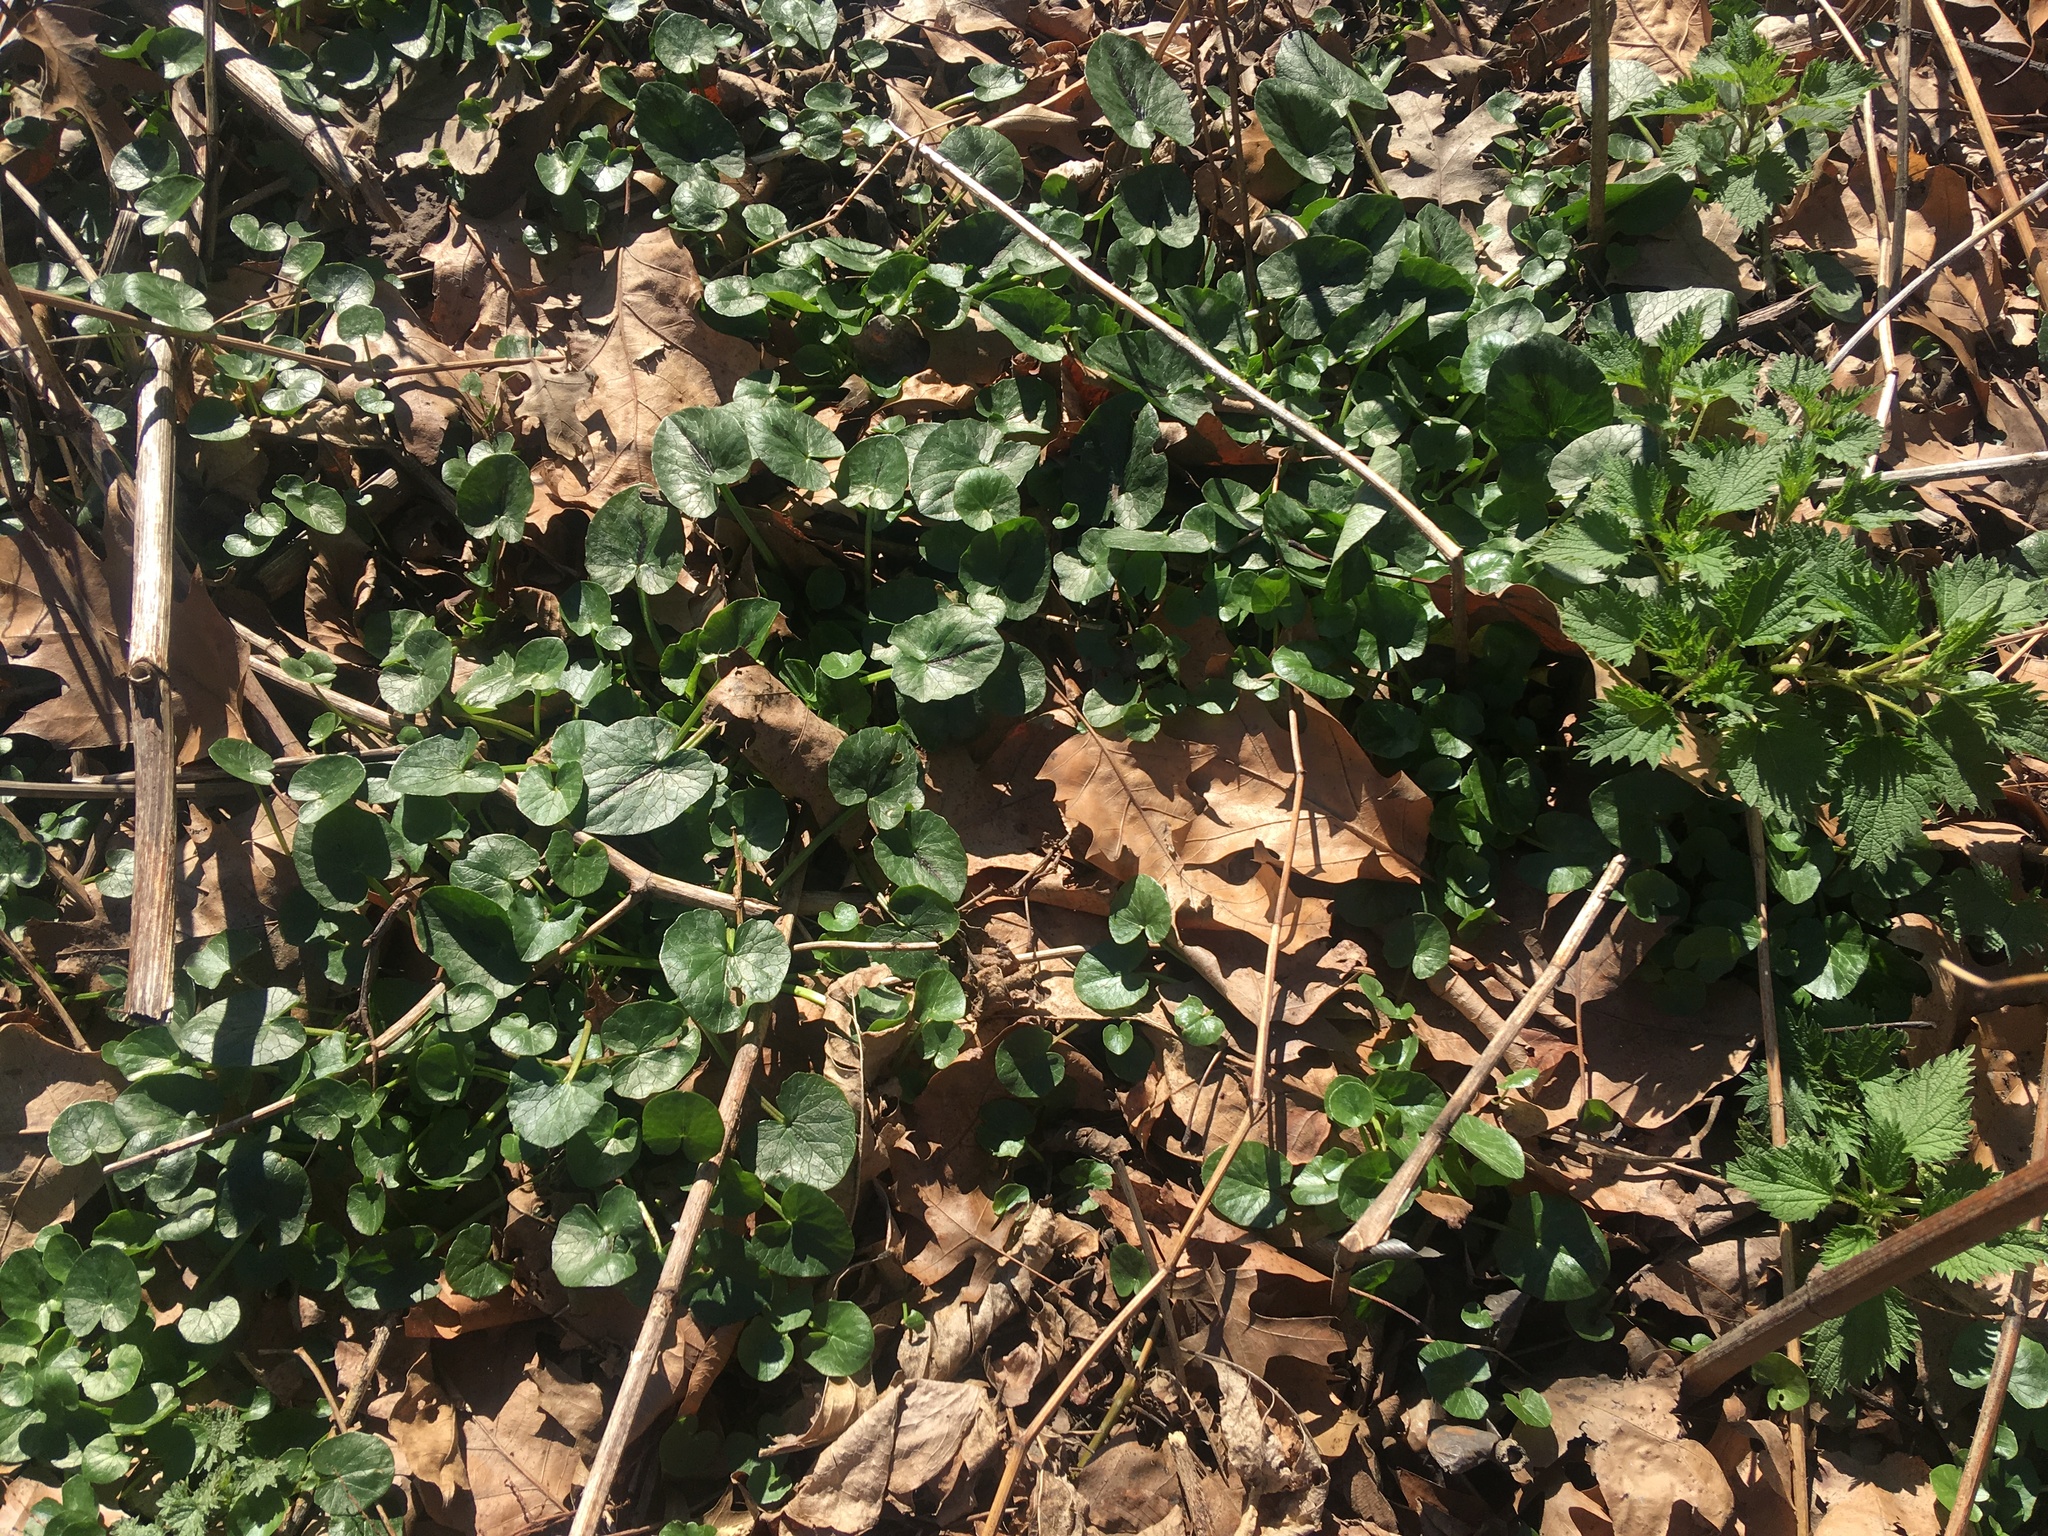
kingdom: Plantae
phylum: Tracheophyta
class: Magnoliopsida
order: Ranunculales
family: Ranunculaceae
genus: Ficaria
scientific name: Ficaria verna
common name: Lesser celandine
